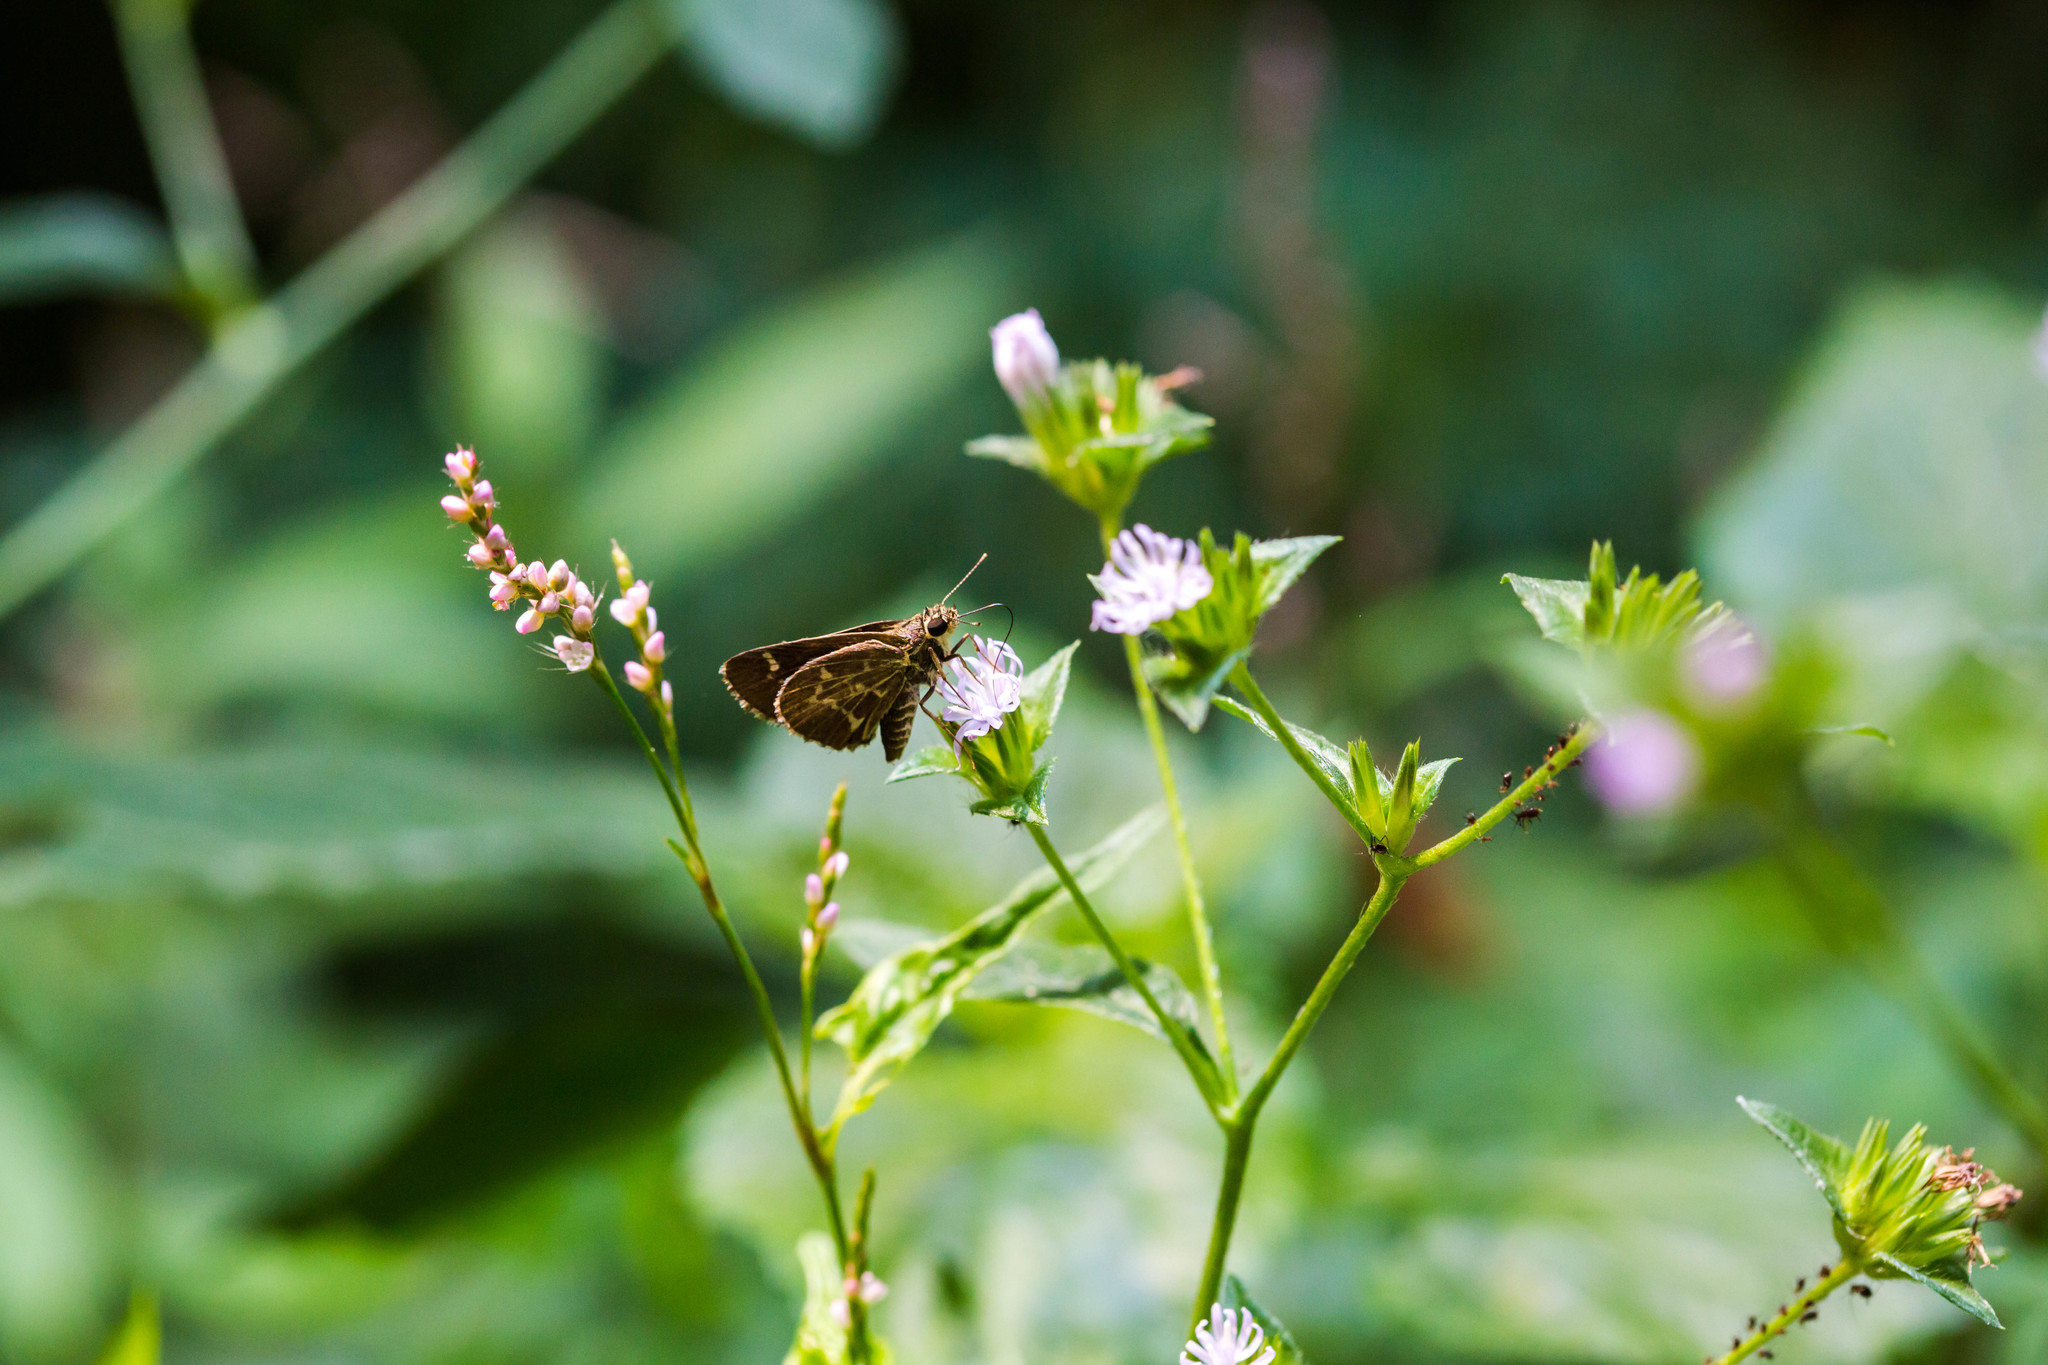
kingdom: Animalia
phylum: Arthropoda
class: Insecta
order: Lepidoptera
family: Hesperiidae
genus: Mastor
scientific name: Mastor aesculapius
